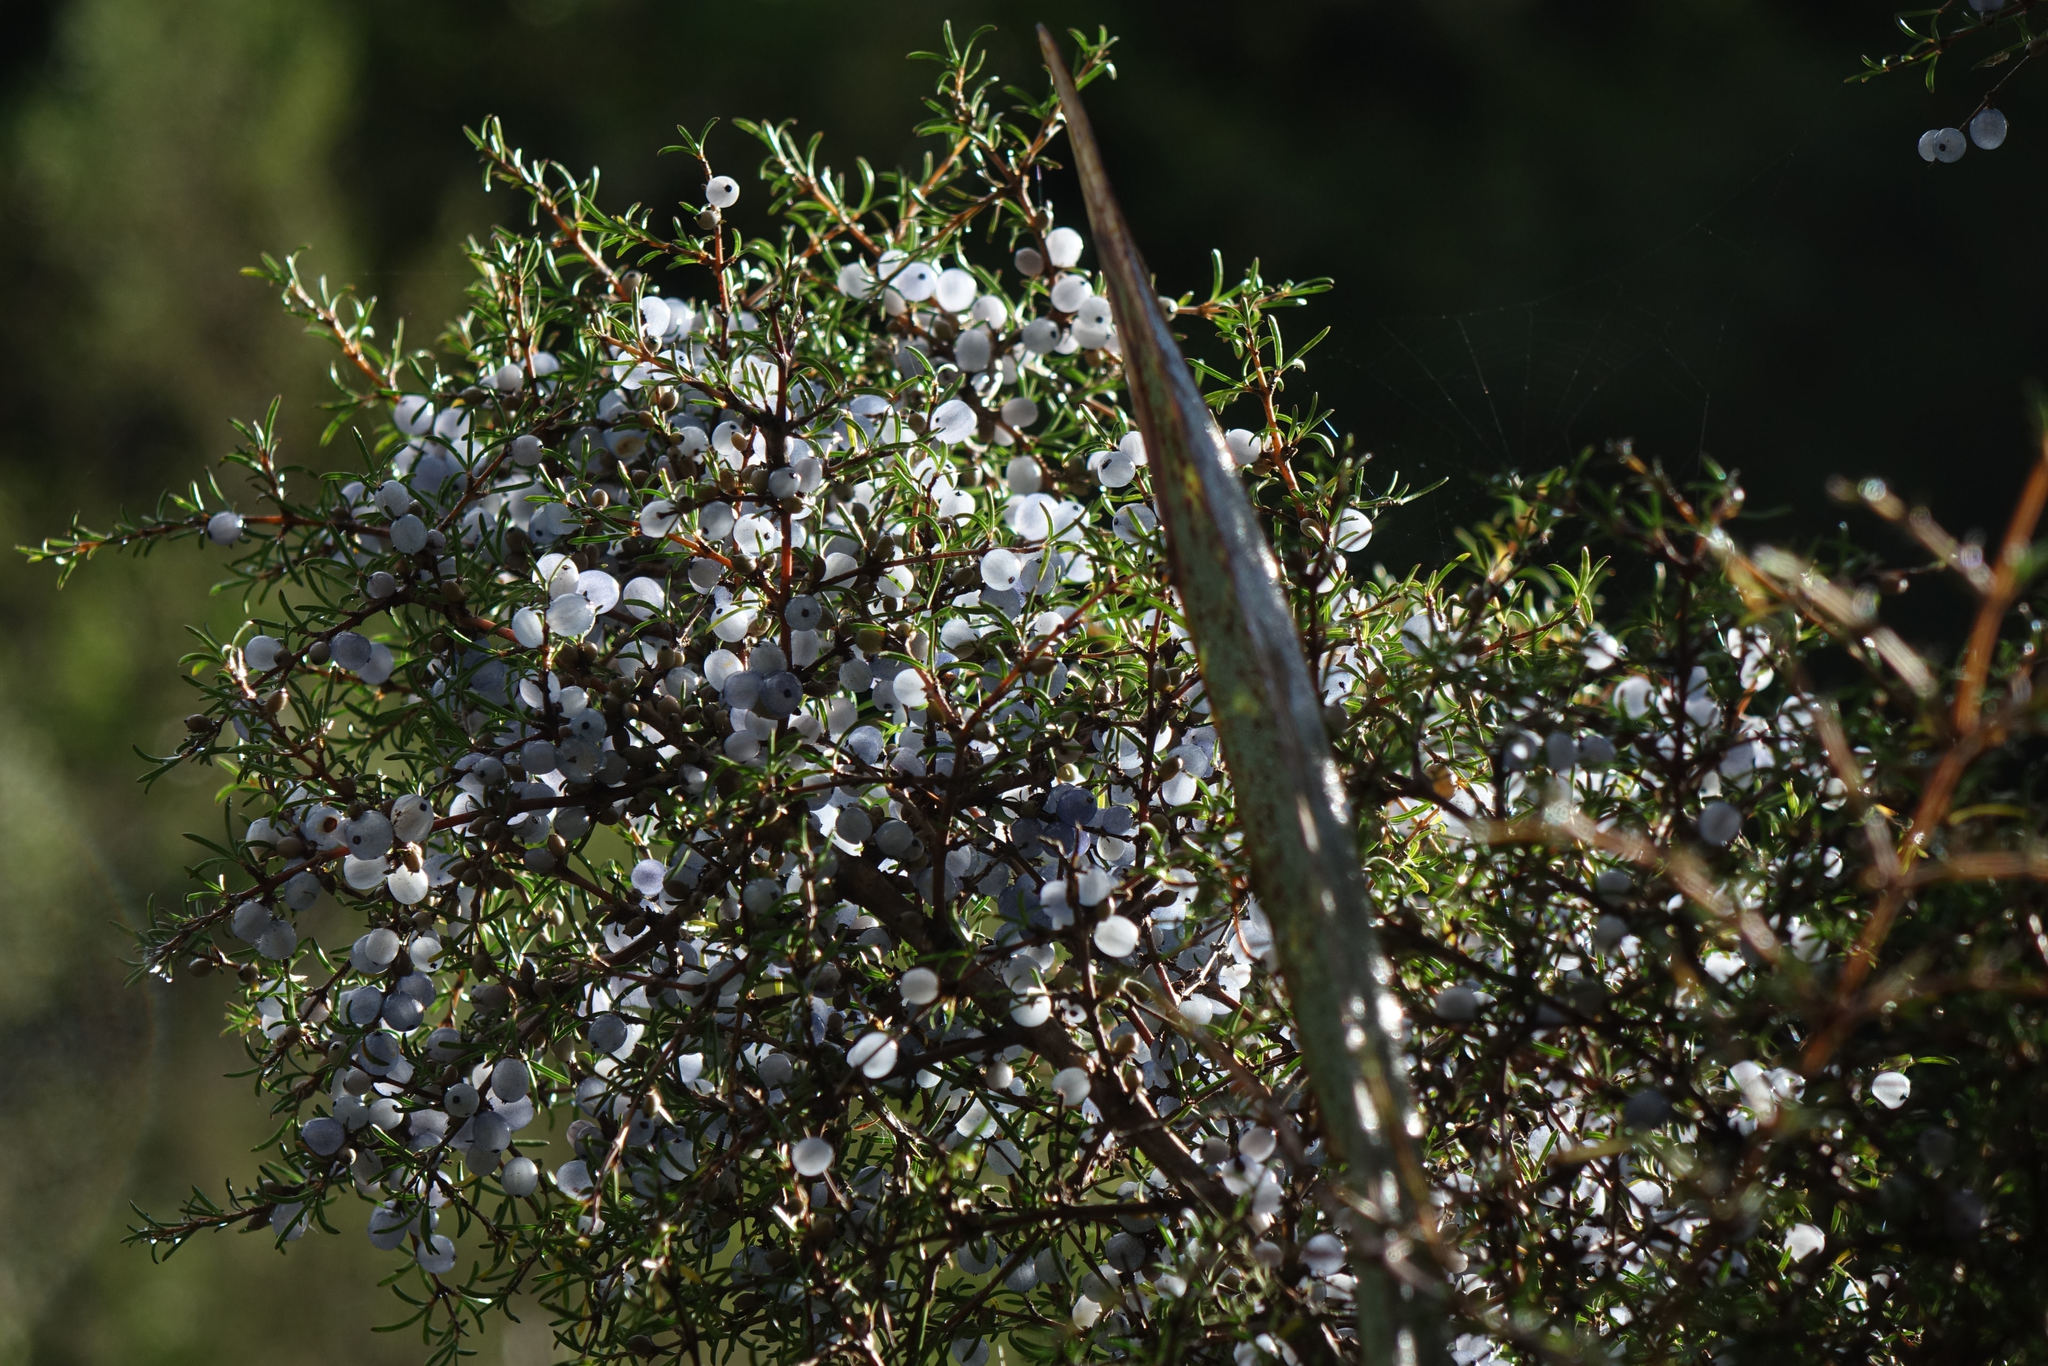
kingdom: Plantae
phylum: Tracheophyta
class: Magnoliopsida
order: Gentianales
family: Rubiaceae
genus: Coprosma
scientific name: Coprosma rugosa
